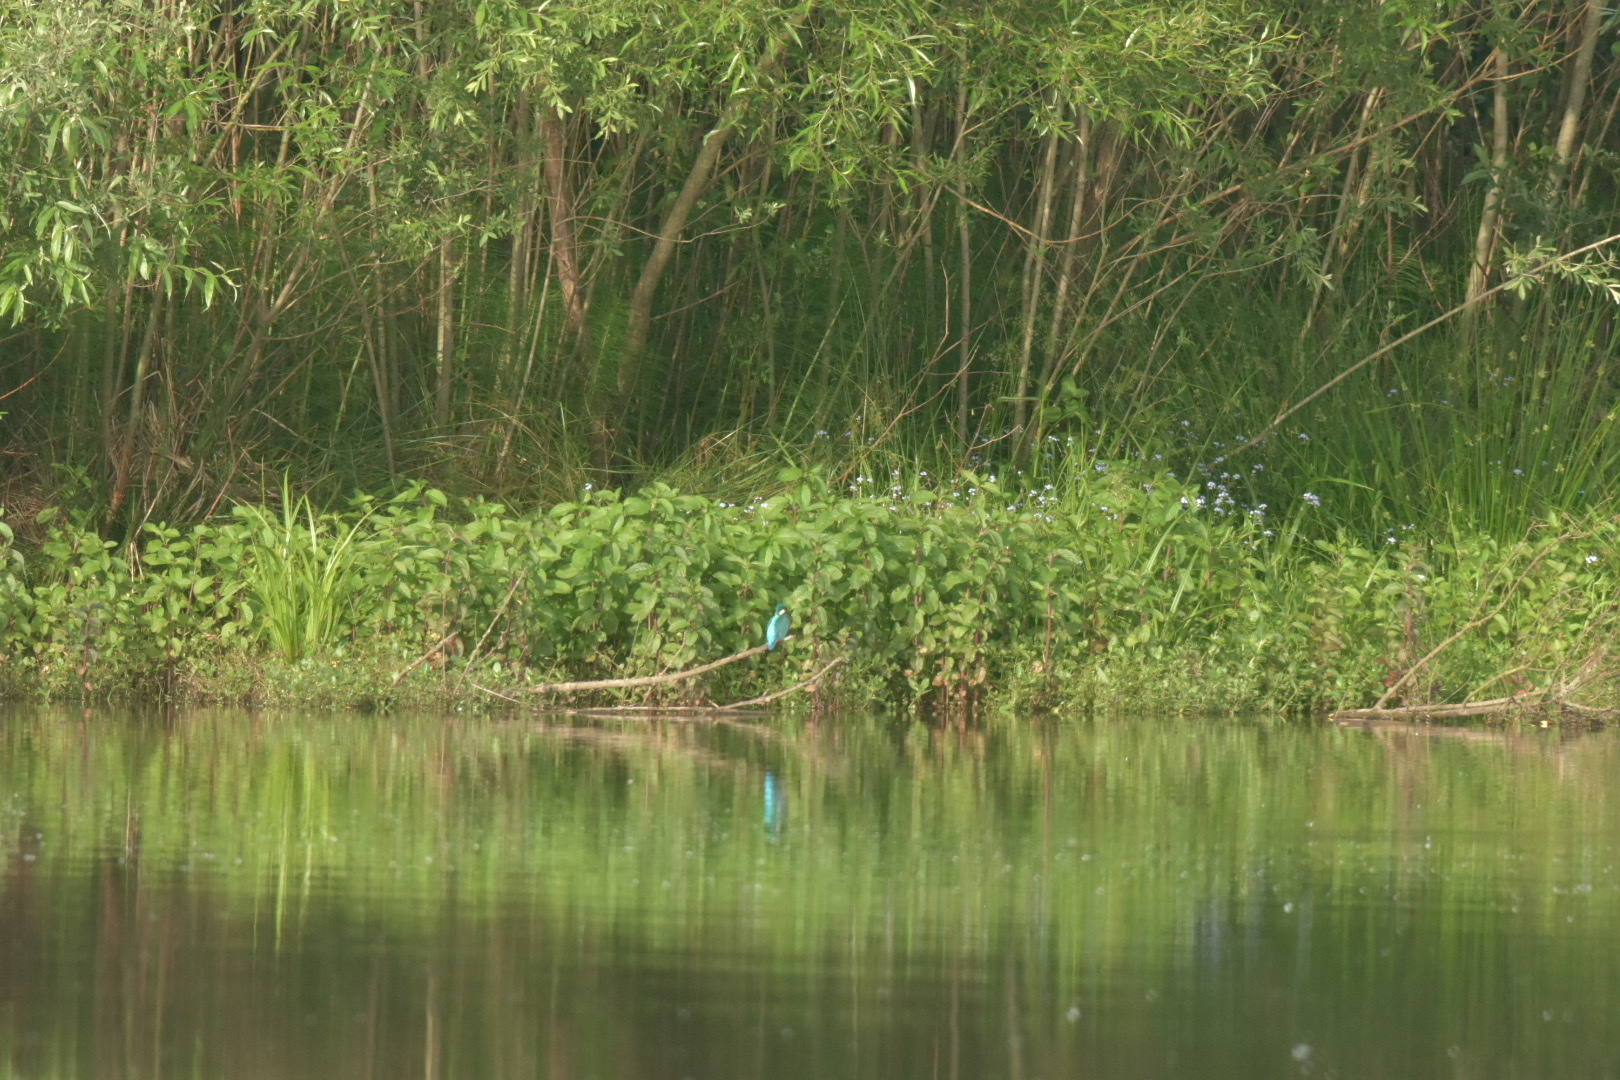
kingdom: Animalia
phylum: Chordata
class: Aves
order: Coraciiformes
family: Alcedinidae
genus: Alcedo
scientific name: Alcedo atthis
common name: Common kingfisher
